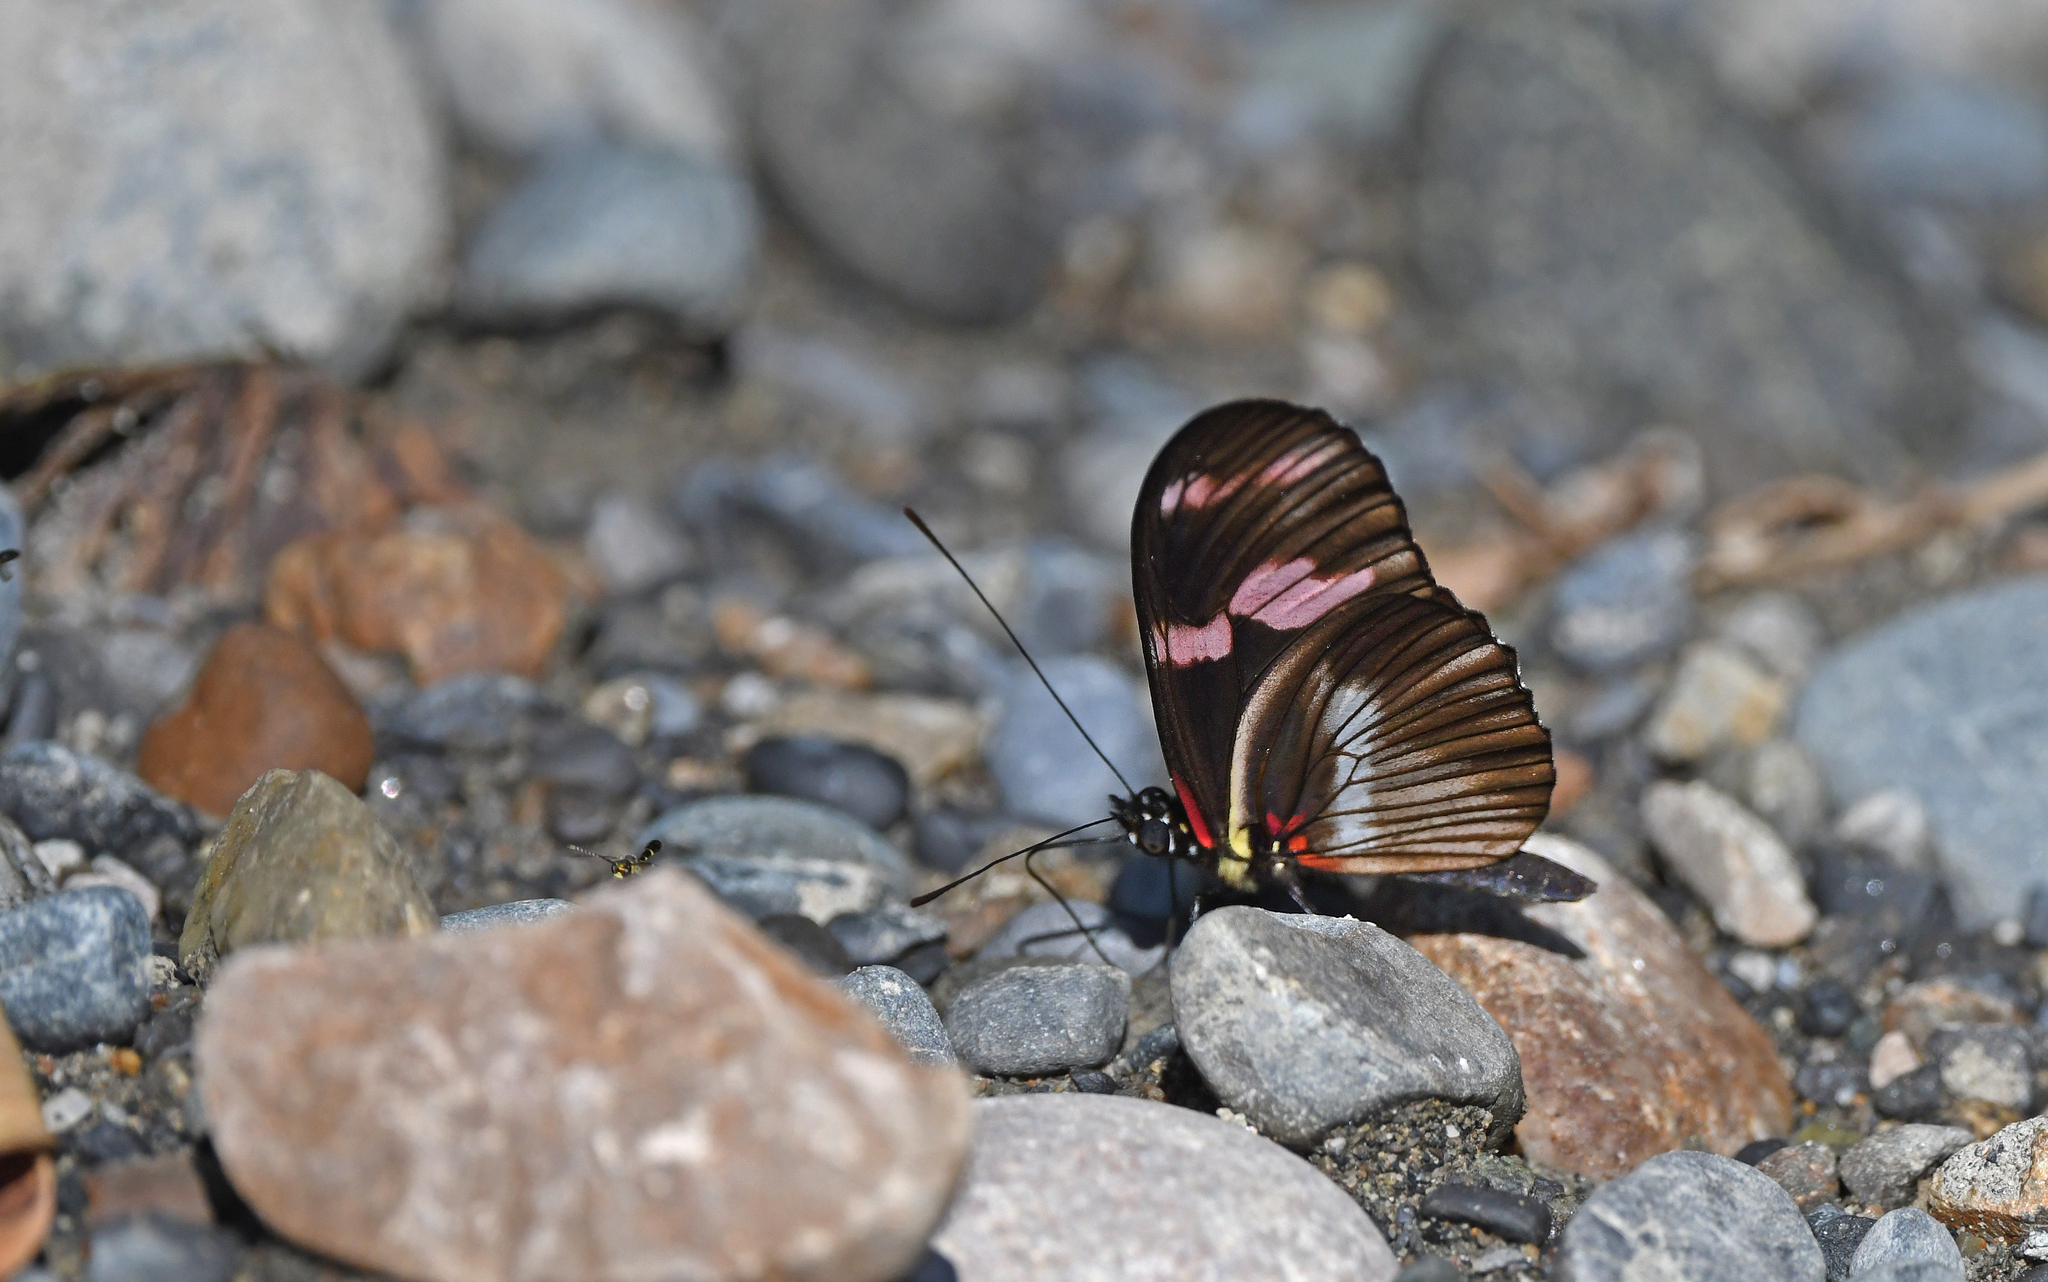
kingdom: Animalia
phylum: Arthropoda
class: Insecta
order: Lepidoptera
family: Nymphalidae
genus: Heliconius
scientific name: Heliconius telesiphe
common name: Telesiphe longwing
